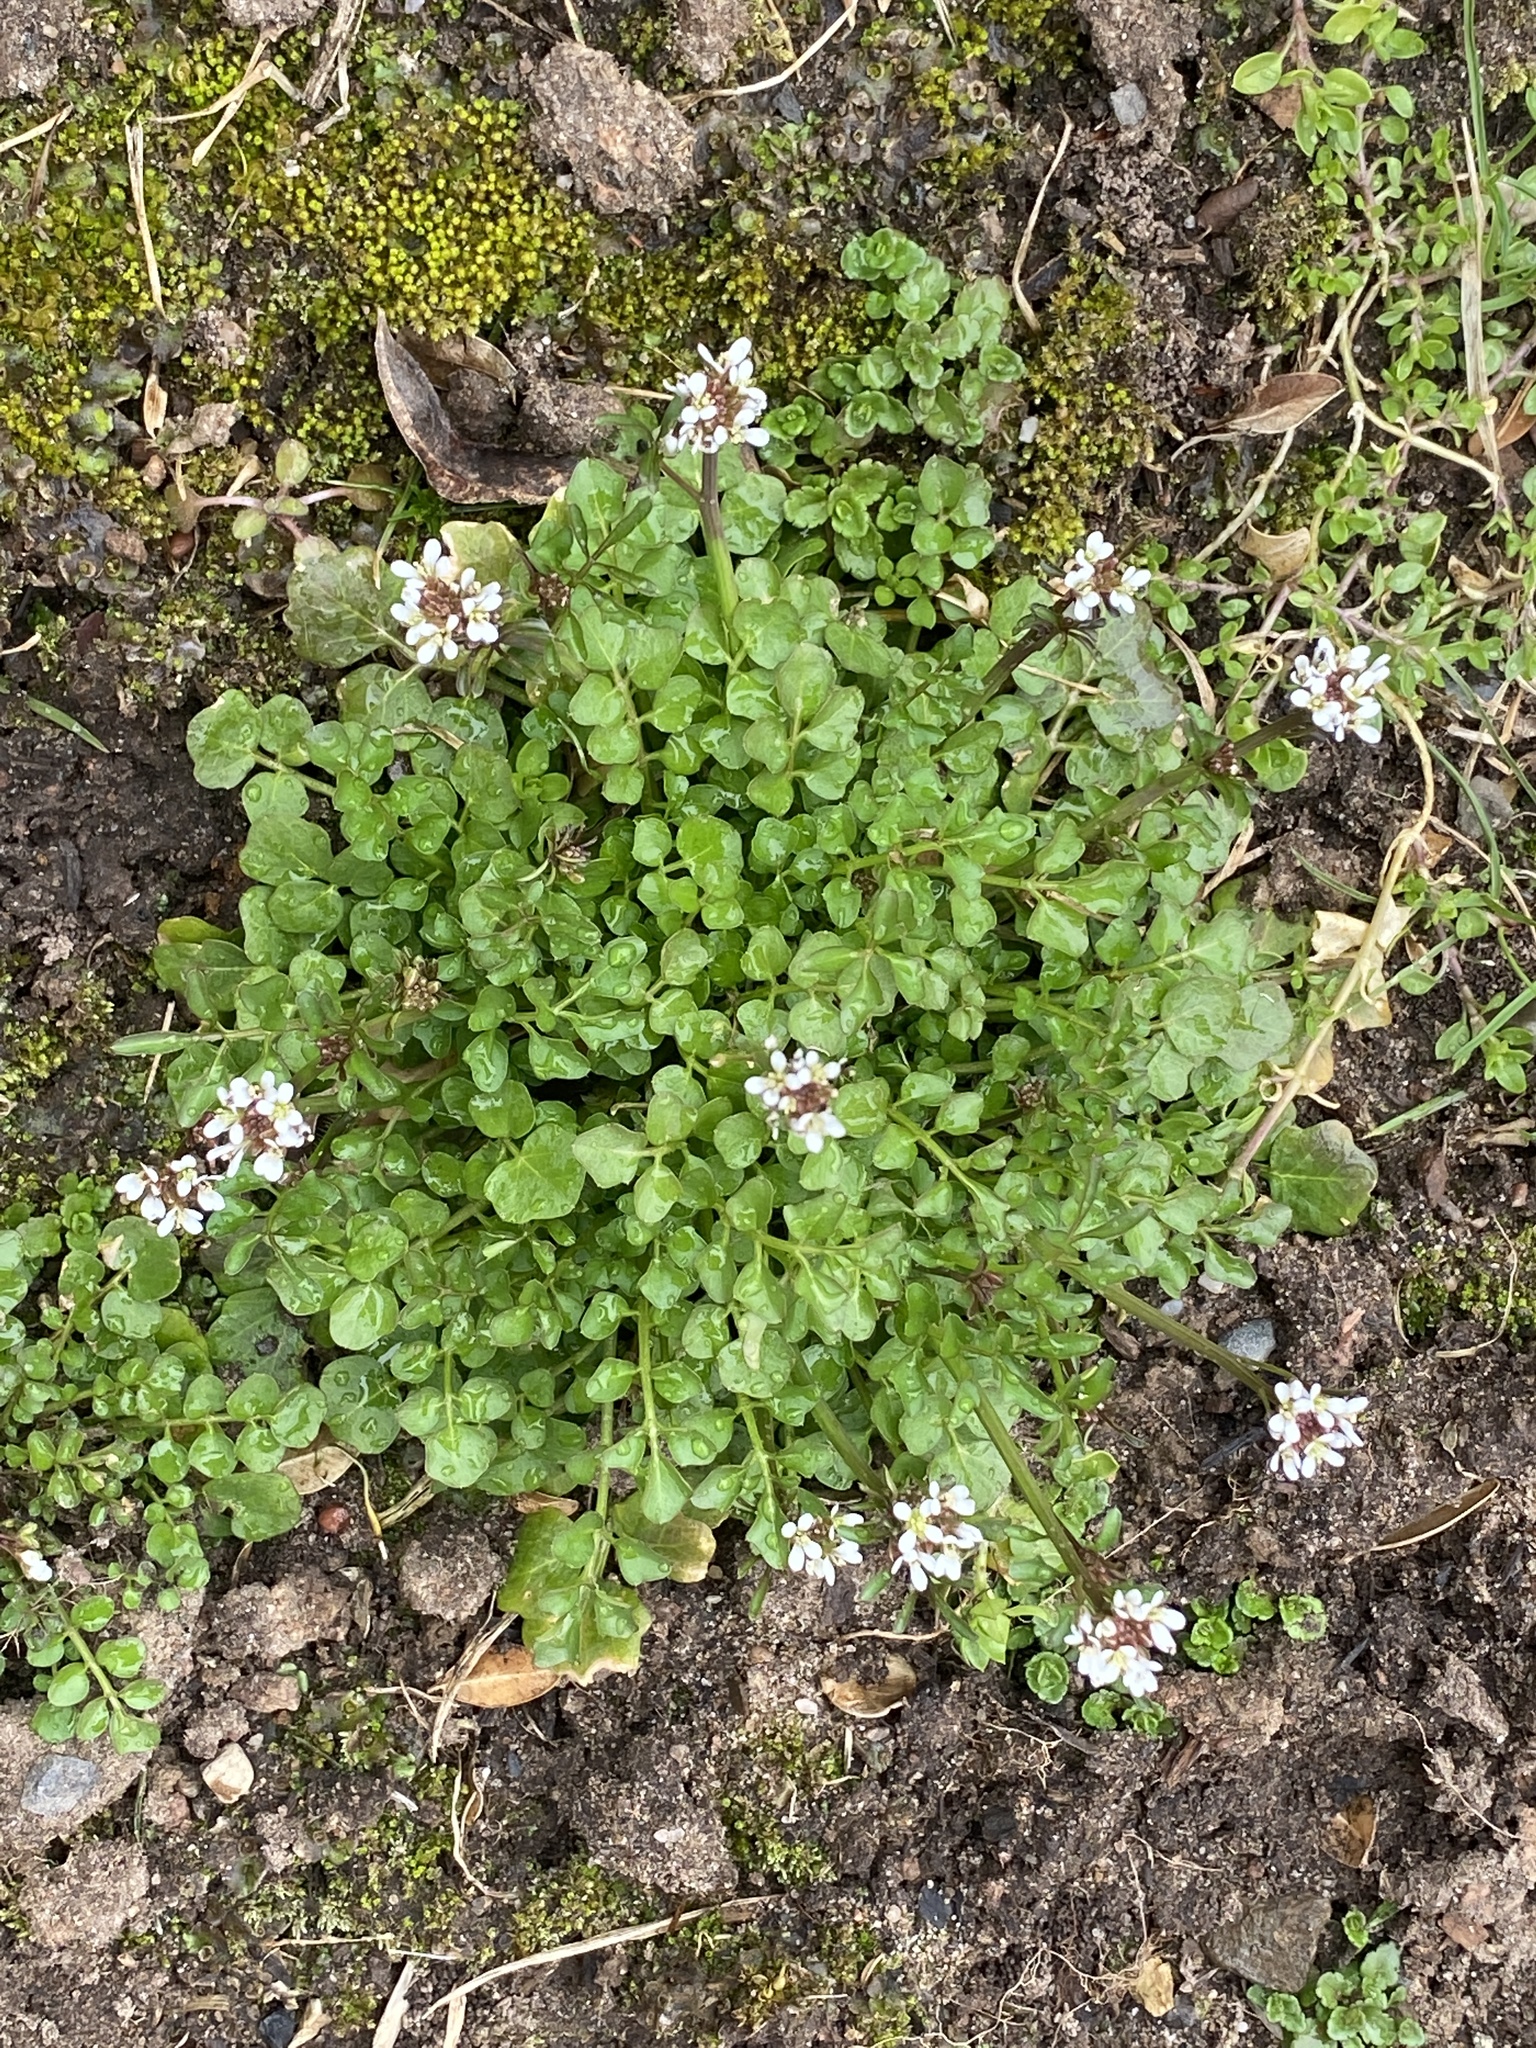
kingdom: Plantae
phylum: Tracheophyta
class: Magnoliopsida
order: Brassicales
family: Brassicaceae
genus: Cardamine
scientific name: Cardamine hirsuta
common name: Hairy bittercress
